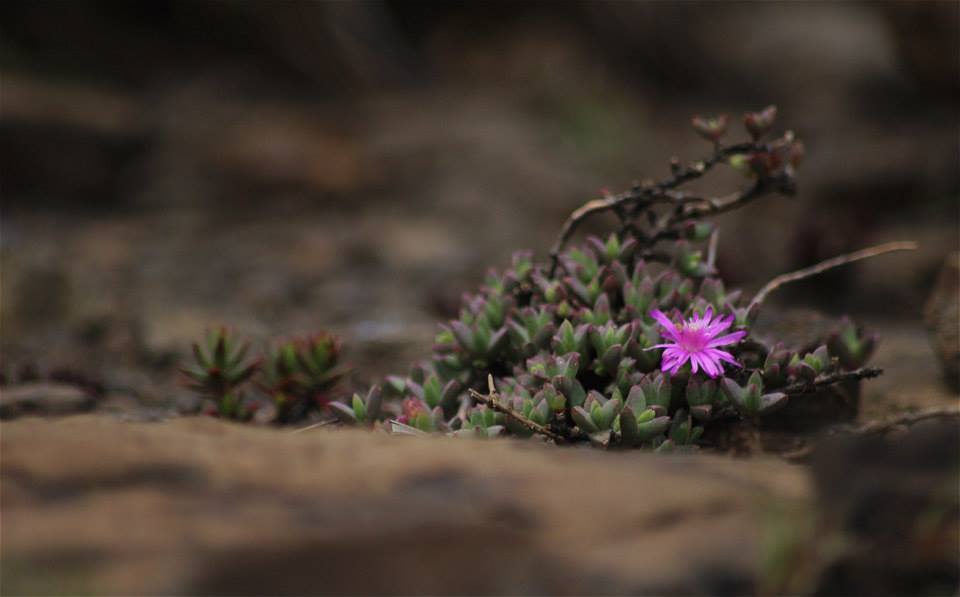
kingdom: Plantae
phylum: Tracheophyta
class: Magnoliopsida
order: Caryophyllales
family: Aizoaceae
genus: Ruschia
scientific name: Ruschia putterillii
